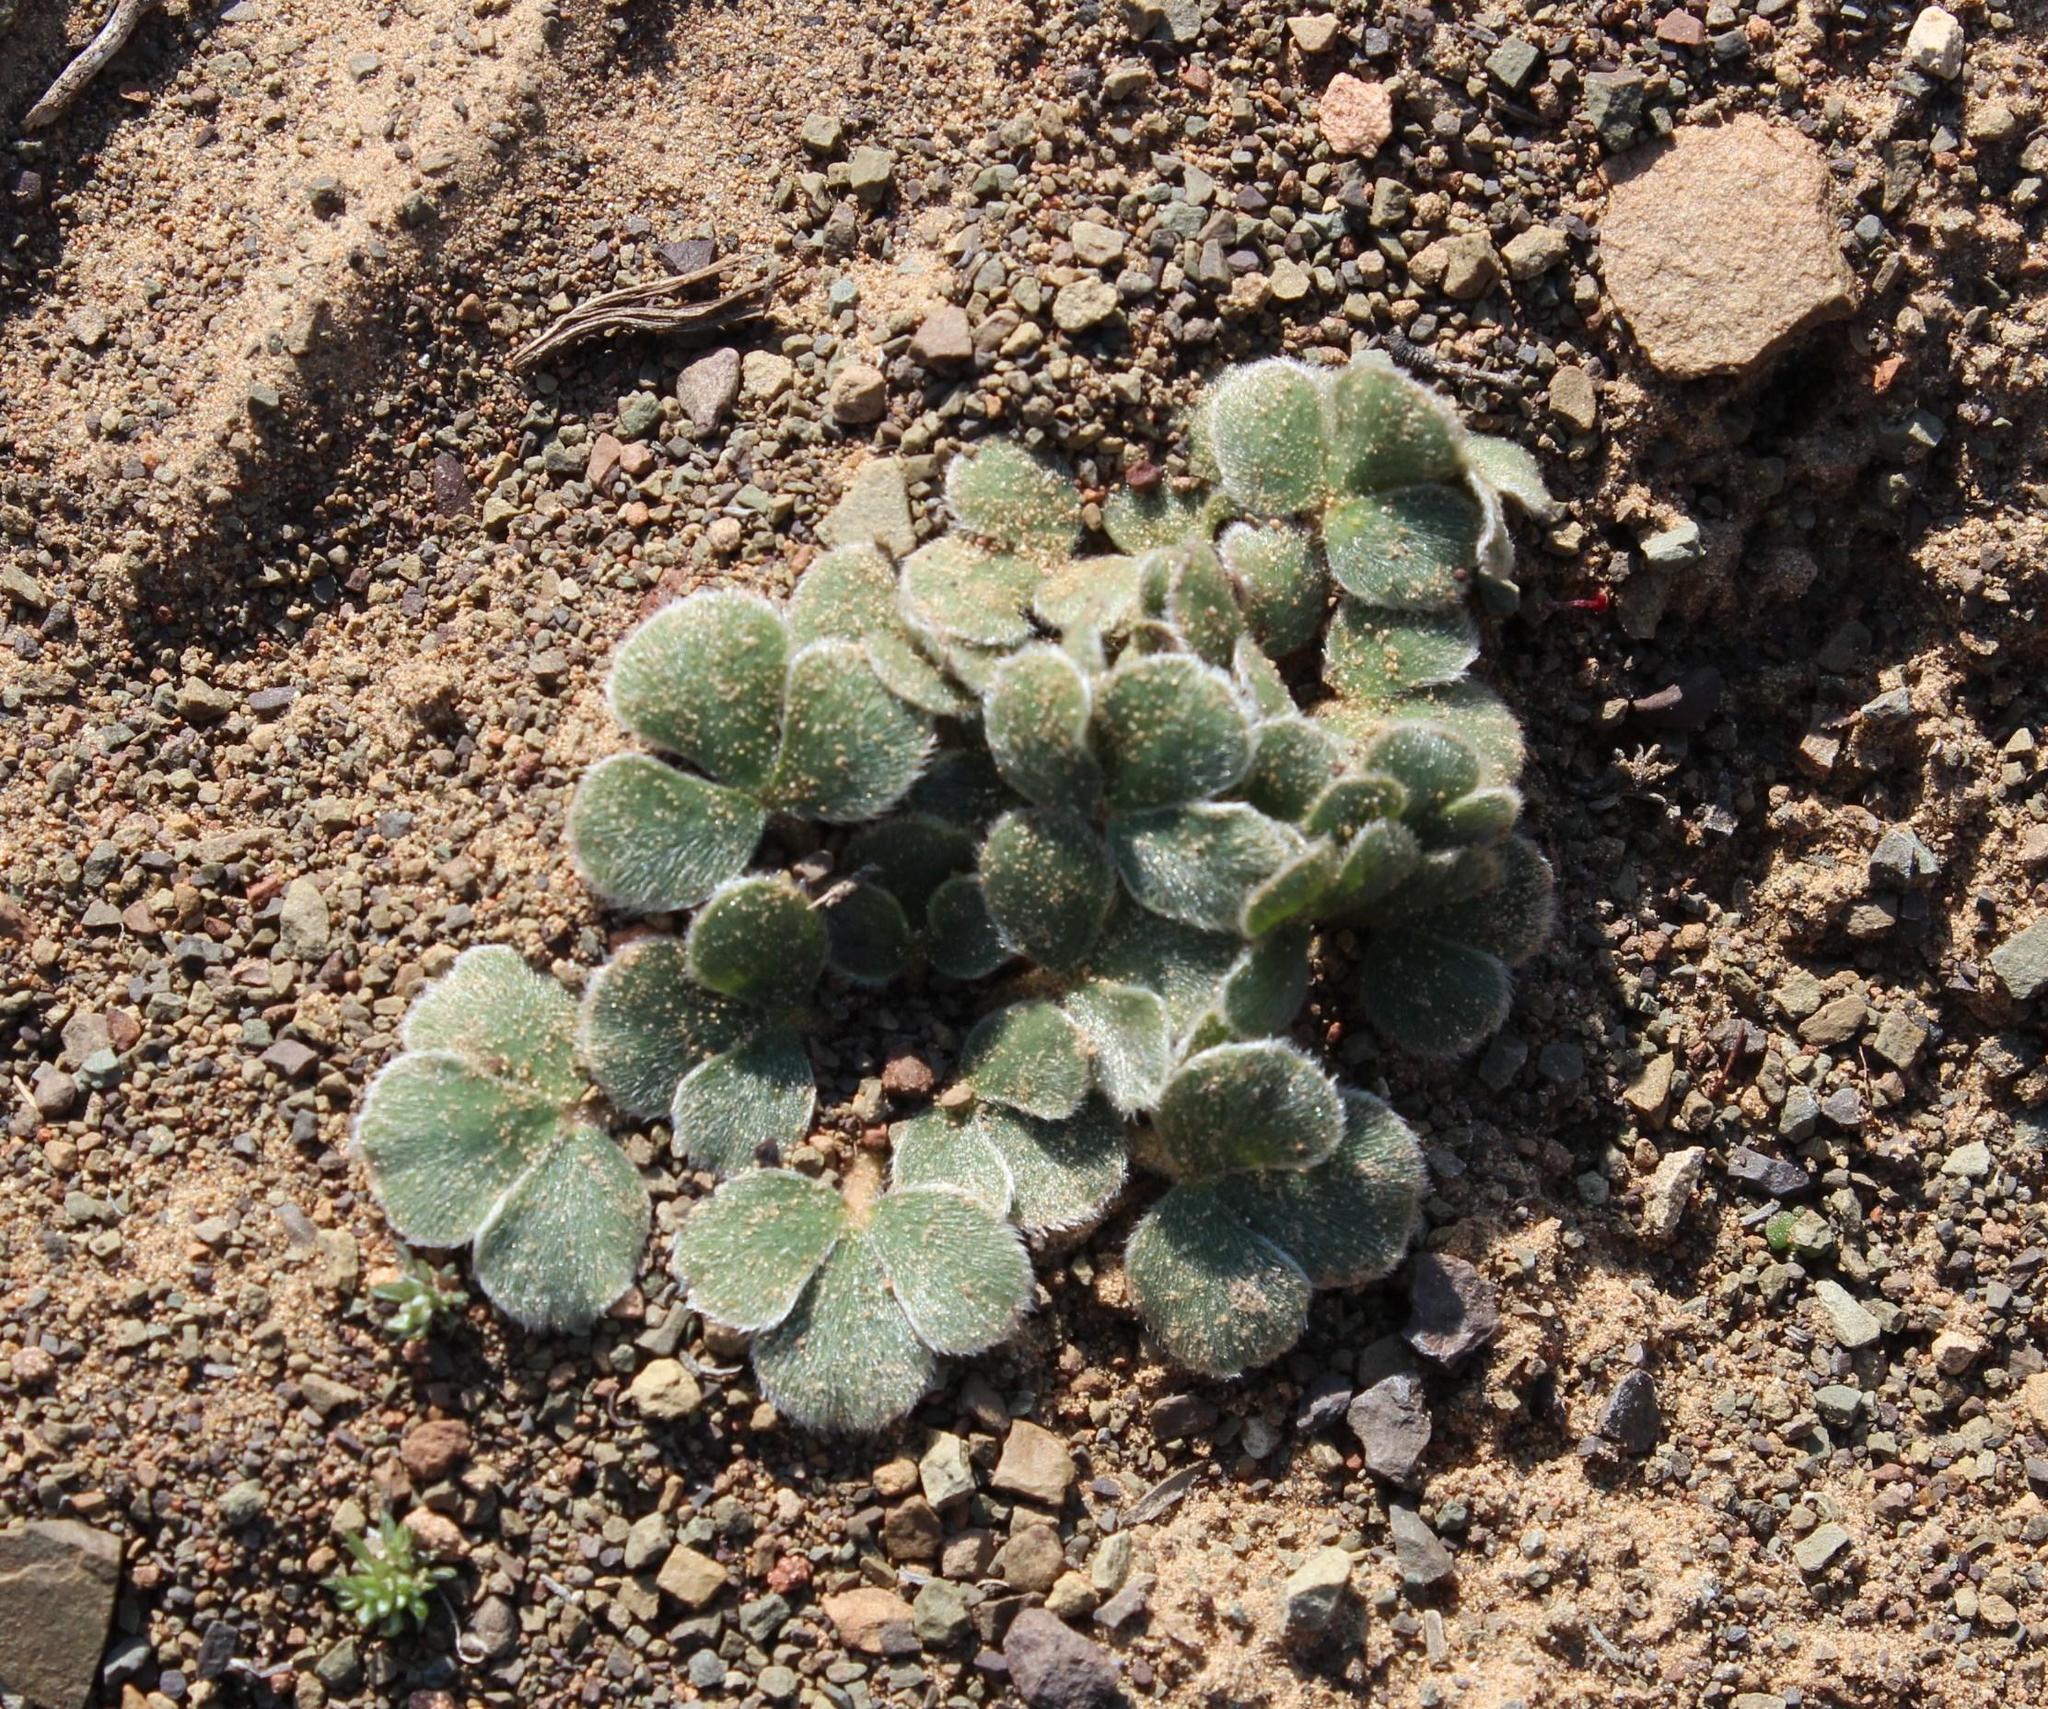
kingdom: Plantae
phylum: Tracheophyta
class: Magnoliopsida
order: Oxalidales
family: Oxalidaceae
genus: Oxalis
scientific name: Oxalis melanosticta
